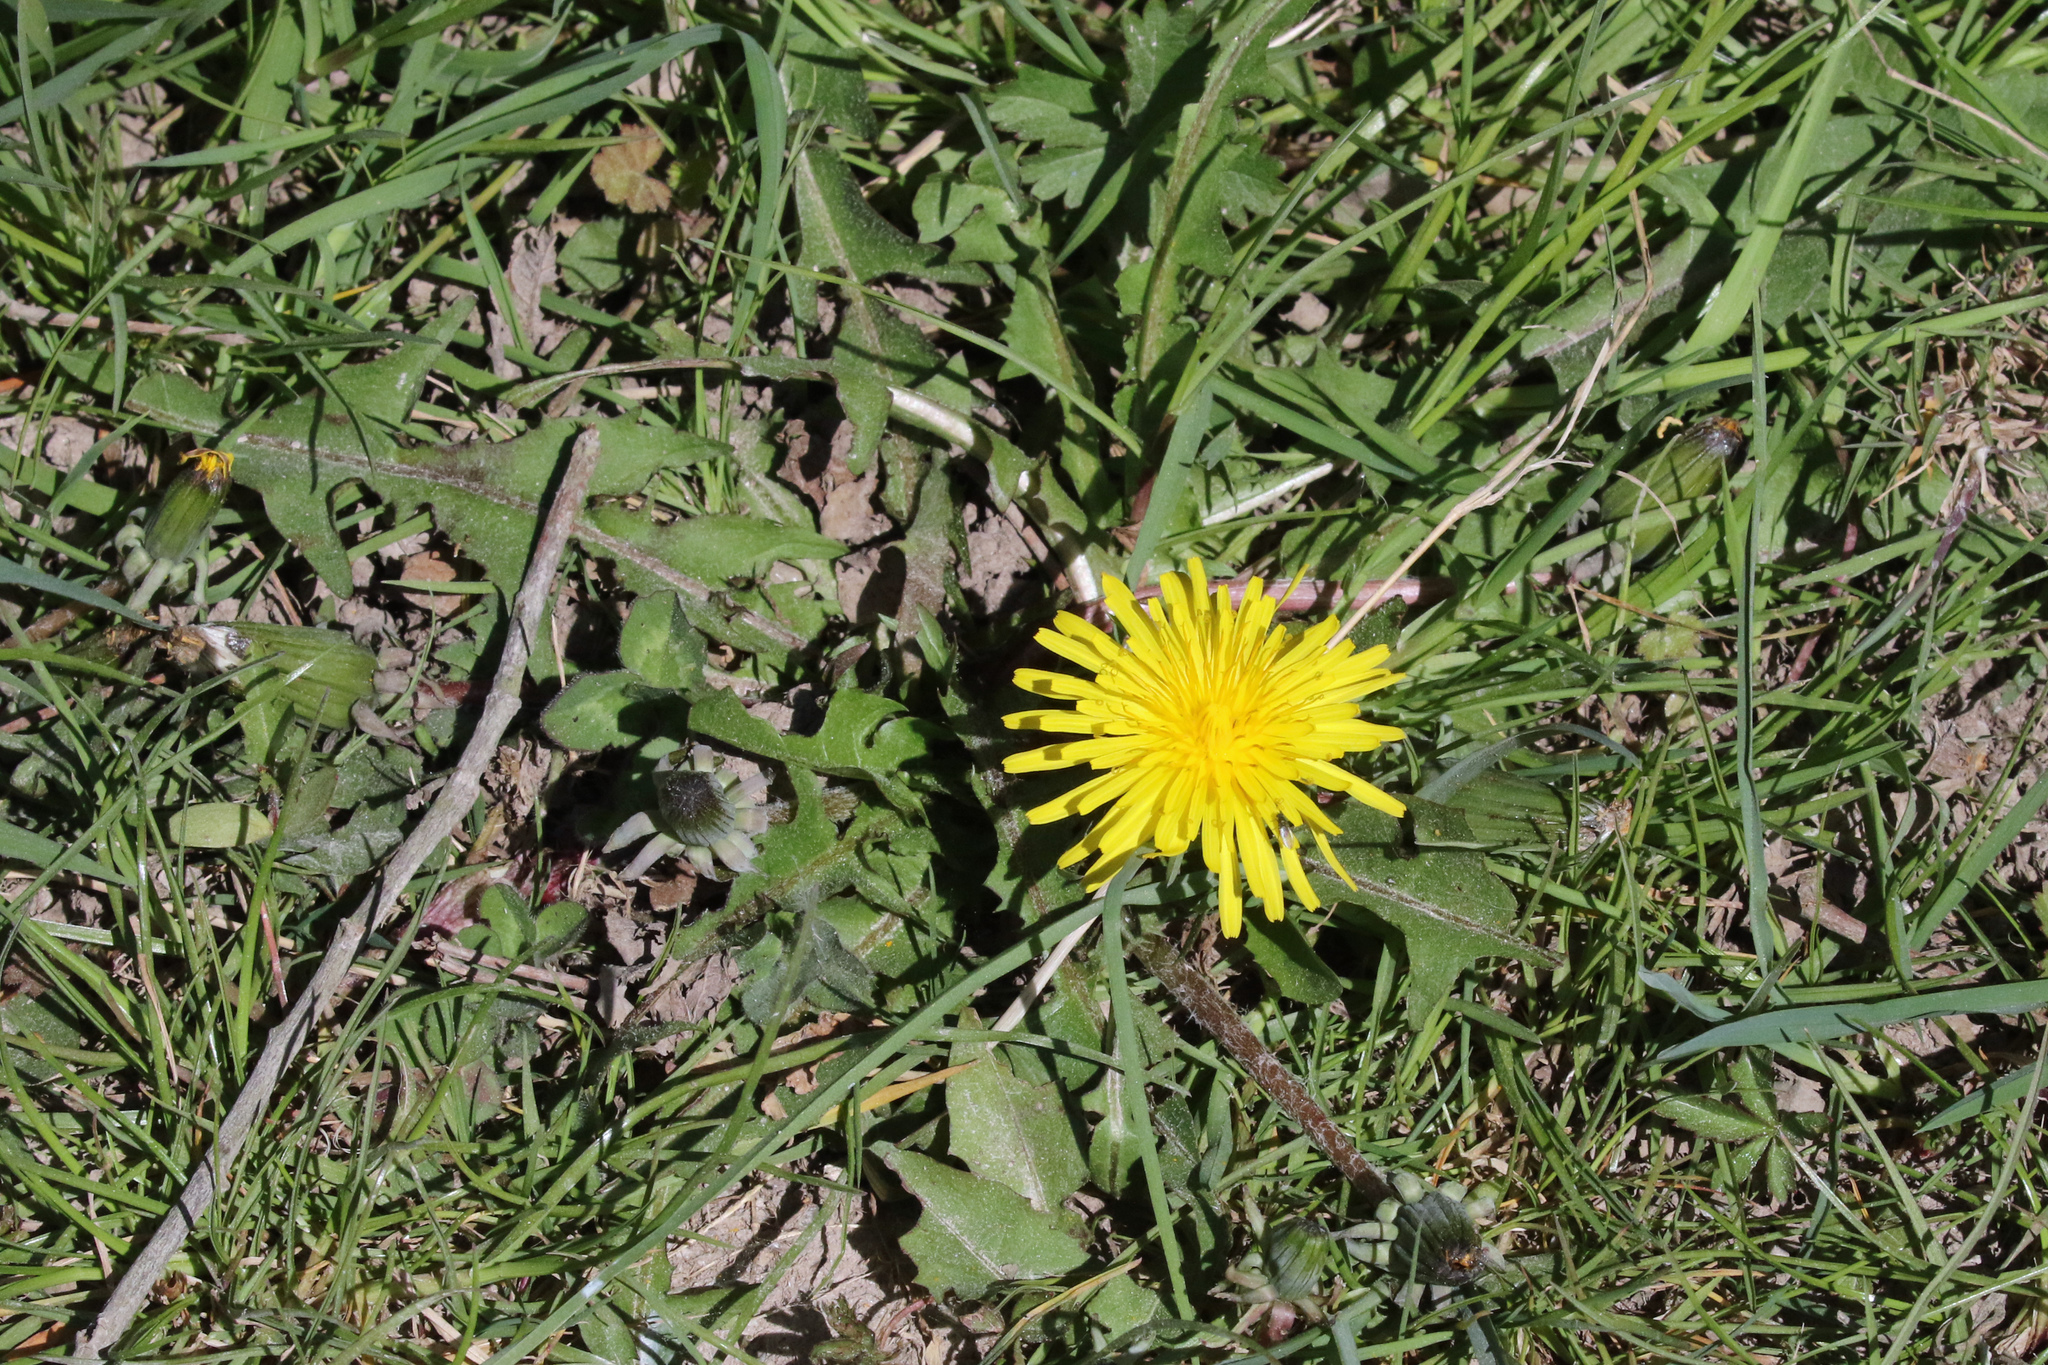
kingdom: Plantae
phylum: Tracheophyta
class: Magnoliopsida
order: Asterales
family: Asteraceae
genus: Taraxacum
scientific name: Taraxacum officinale
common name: Common dandelion
